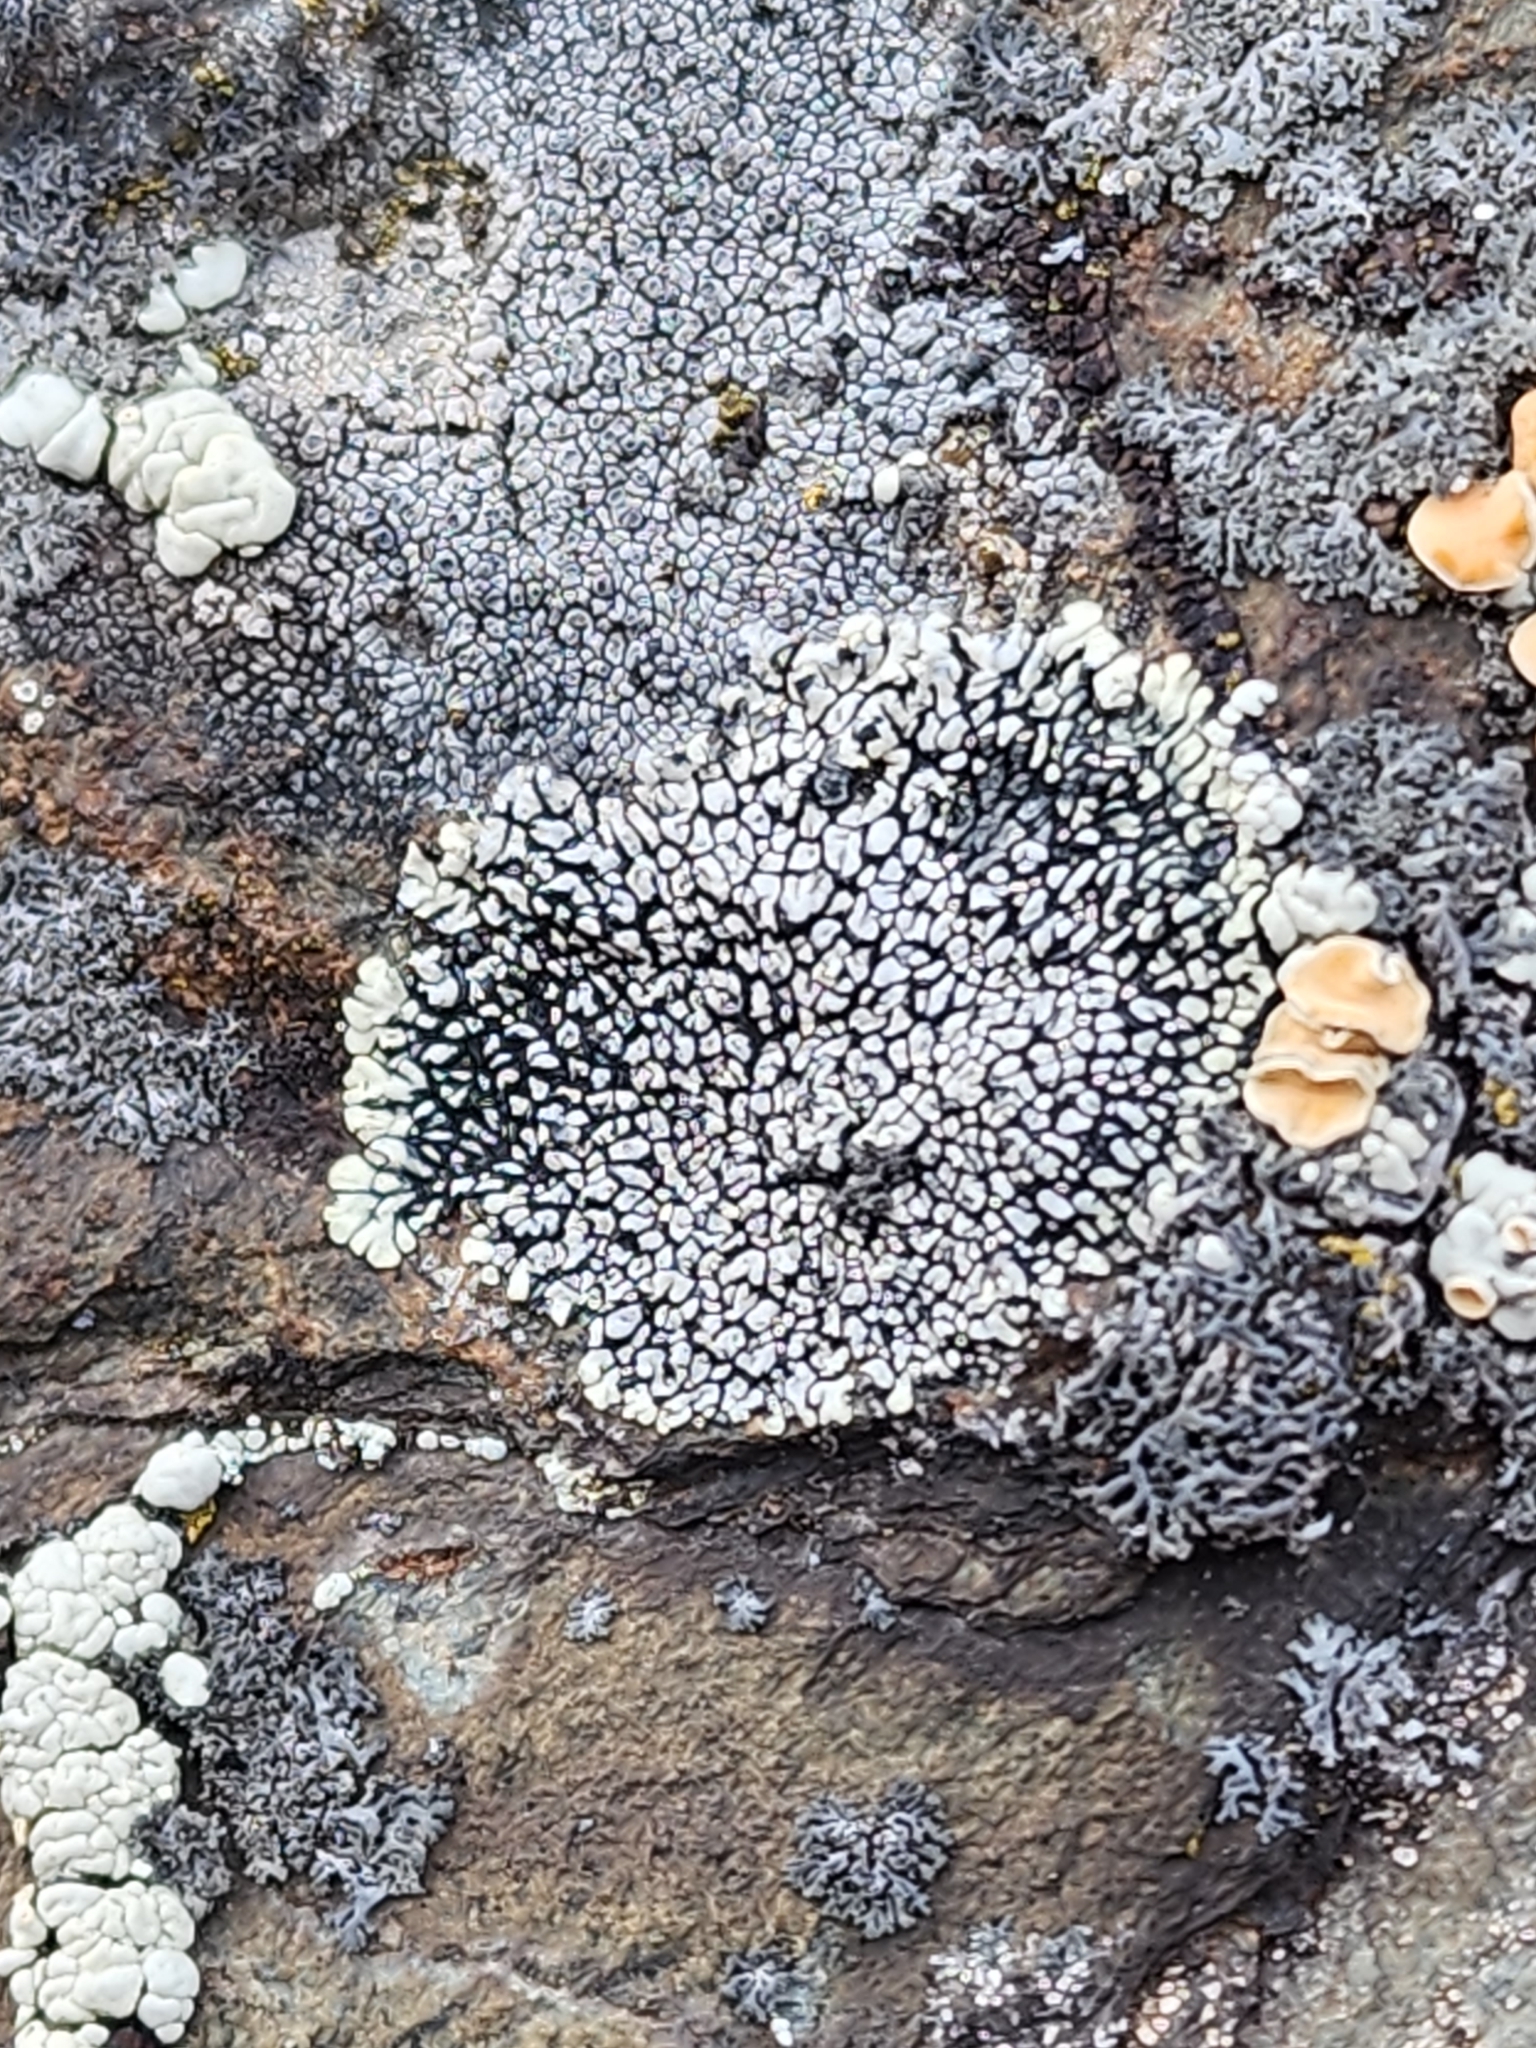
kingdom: Fungi
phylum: Ascomycota
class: Lecanoromycetes
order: Caliciales
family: Caliciaceae
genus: Dimelaena
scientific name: Dimelaena oreina
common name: Golden moonglow lichen
